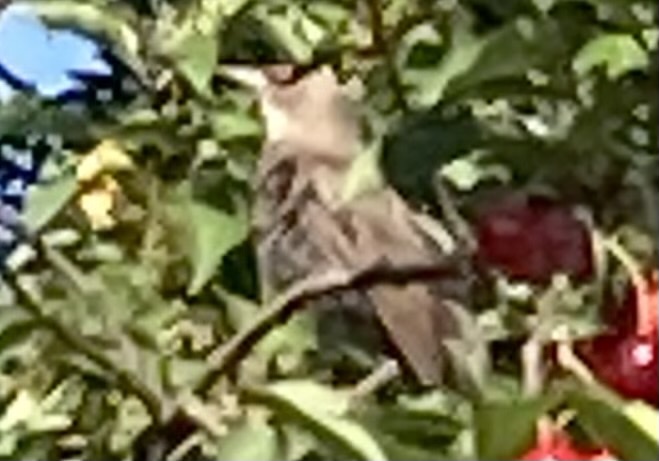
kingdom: Animalia
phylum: Chordata
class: Aves
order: Passeriformes
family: Sturnidae
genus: Sturnus
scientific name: Sturnus vulgaris
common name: Common starling
